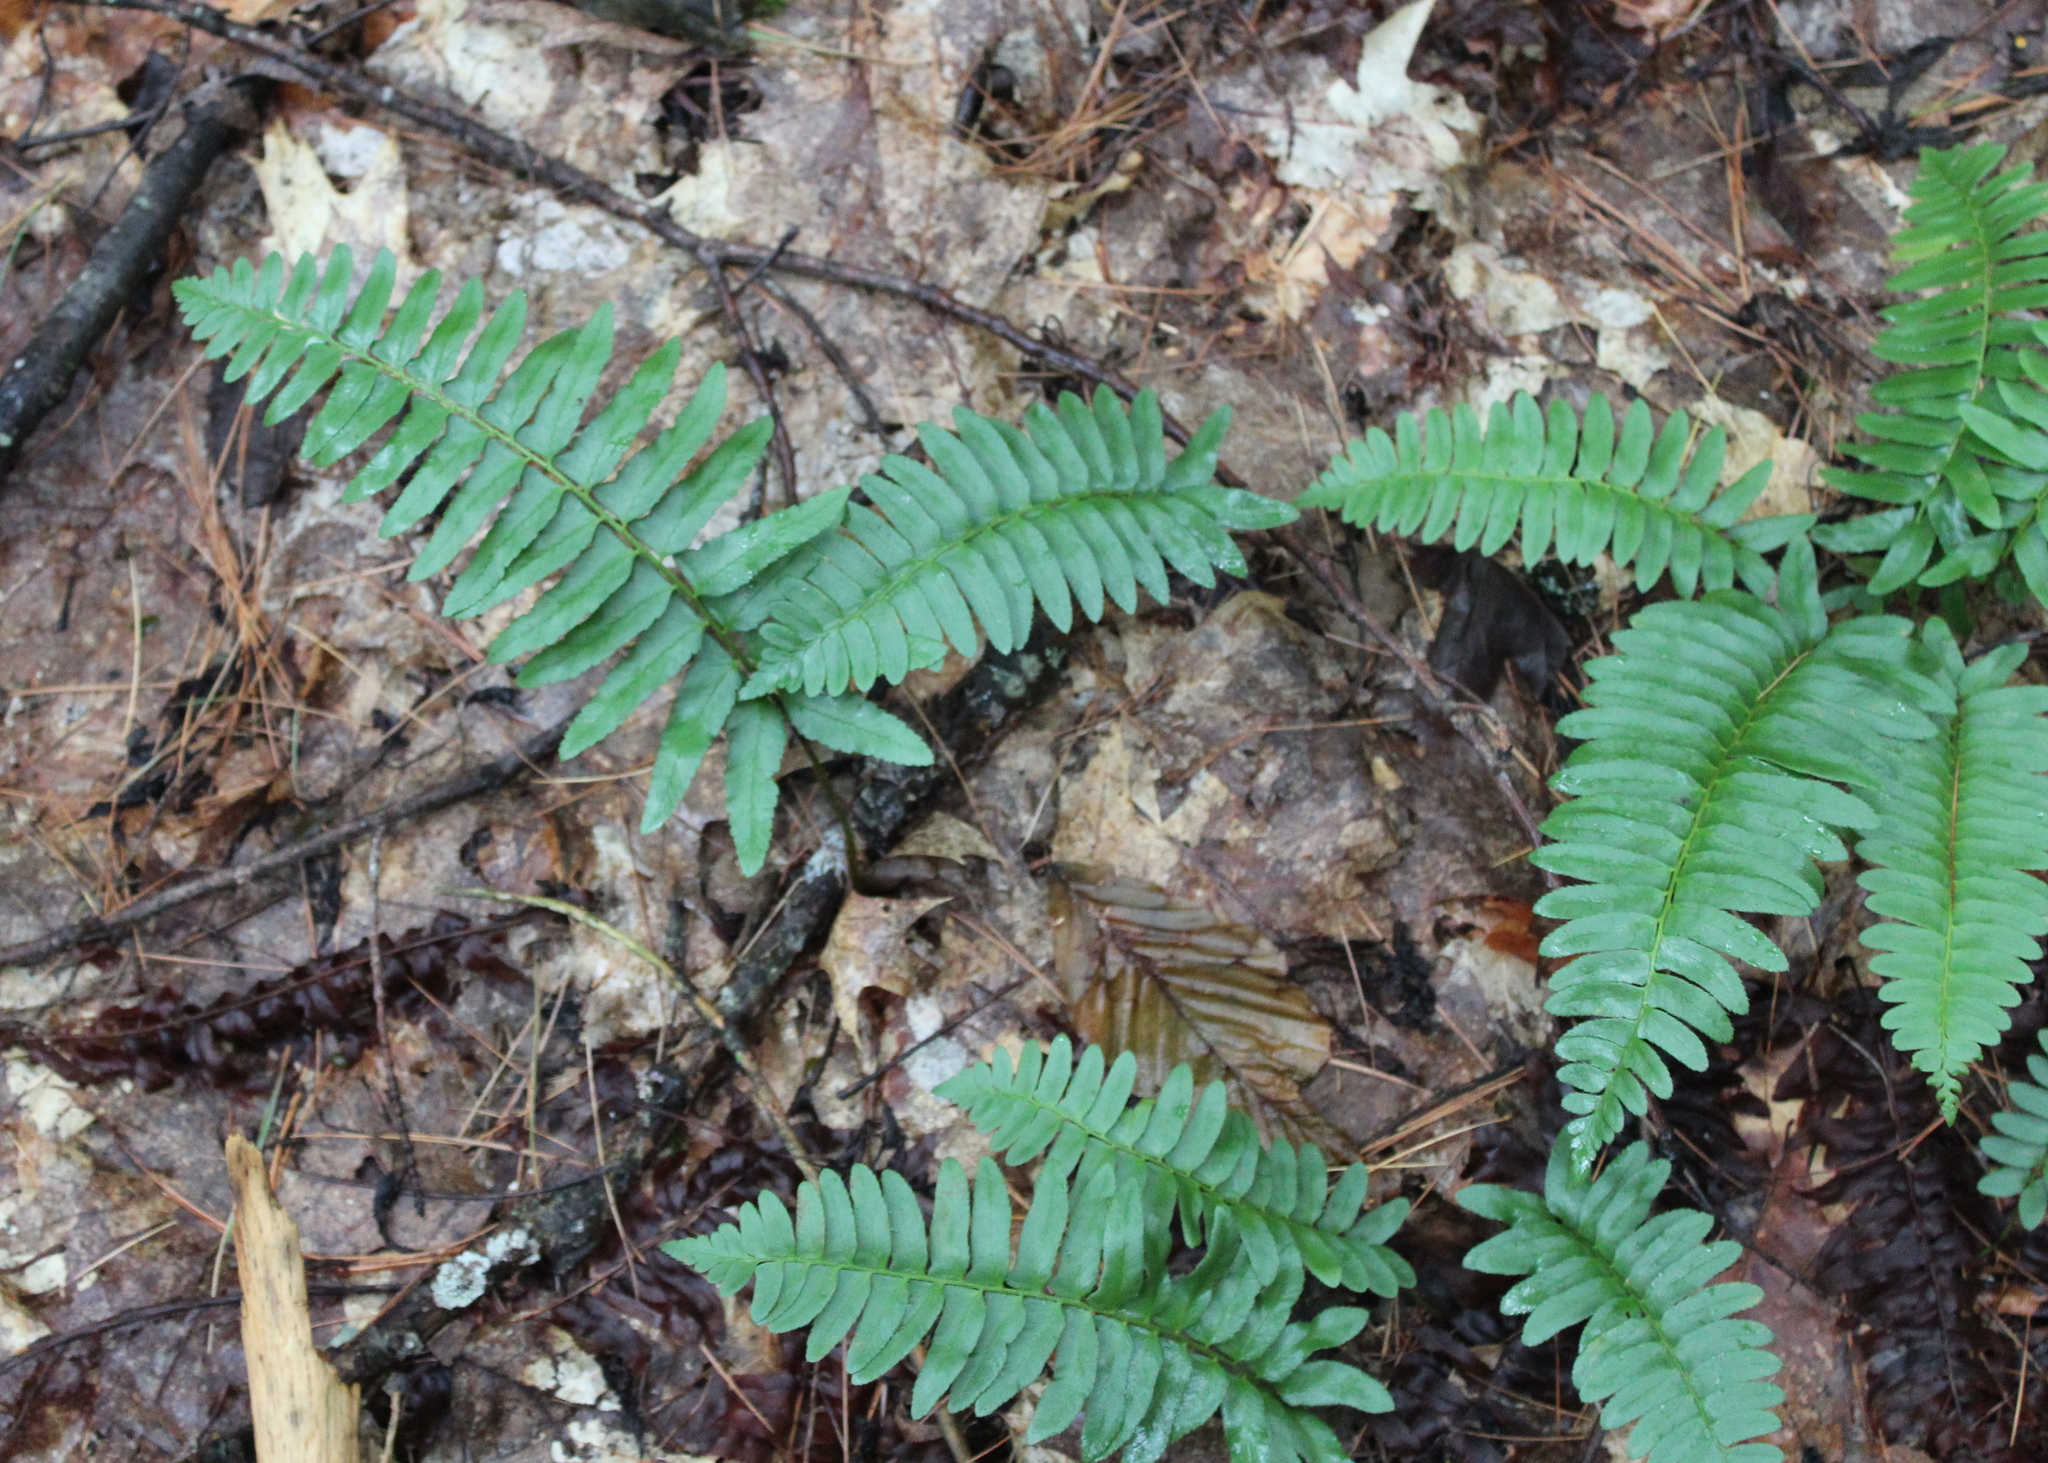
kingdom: Plantae
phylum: Tracheophyta
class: Polypodiopsida
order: Polypodiales
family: Dryopteridaceae
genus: Polystichum
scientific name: Polystichum acrostichoides
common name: Christmas fern
